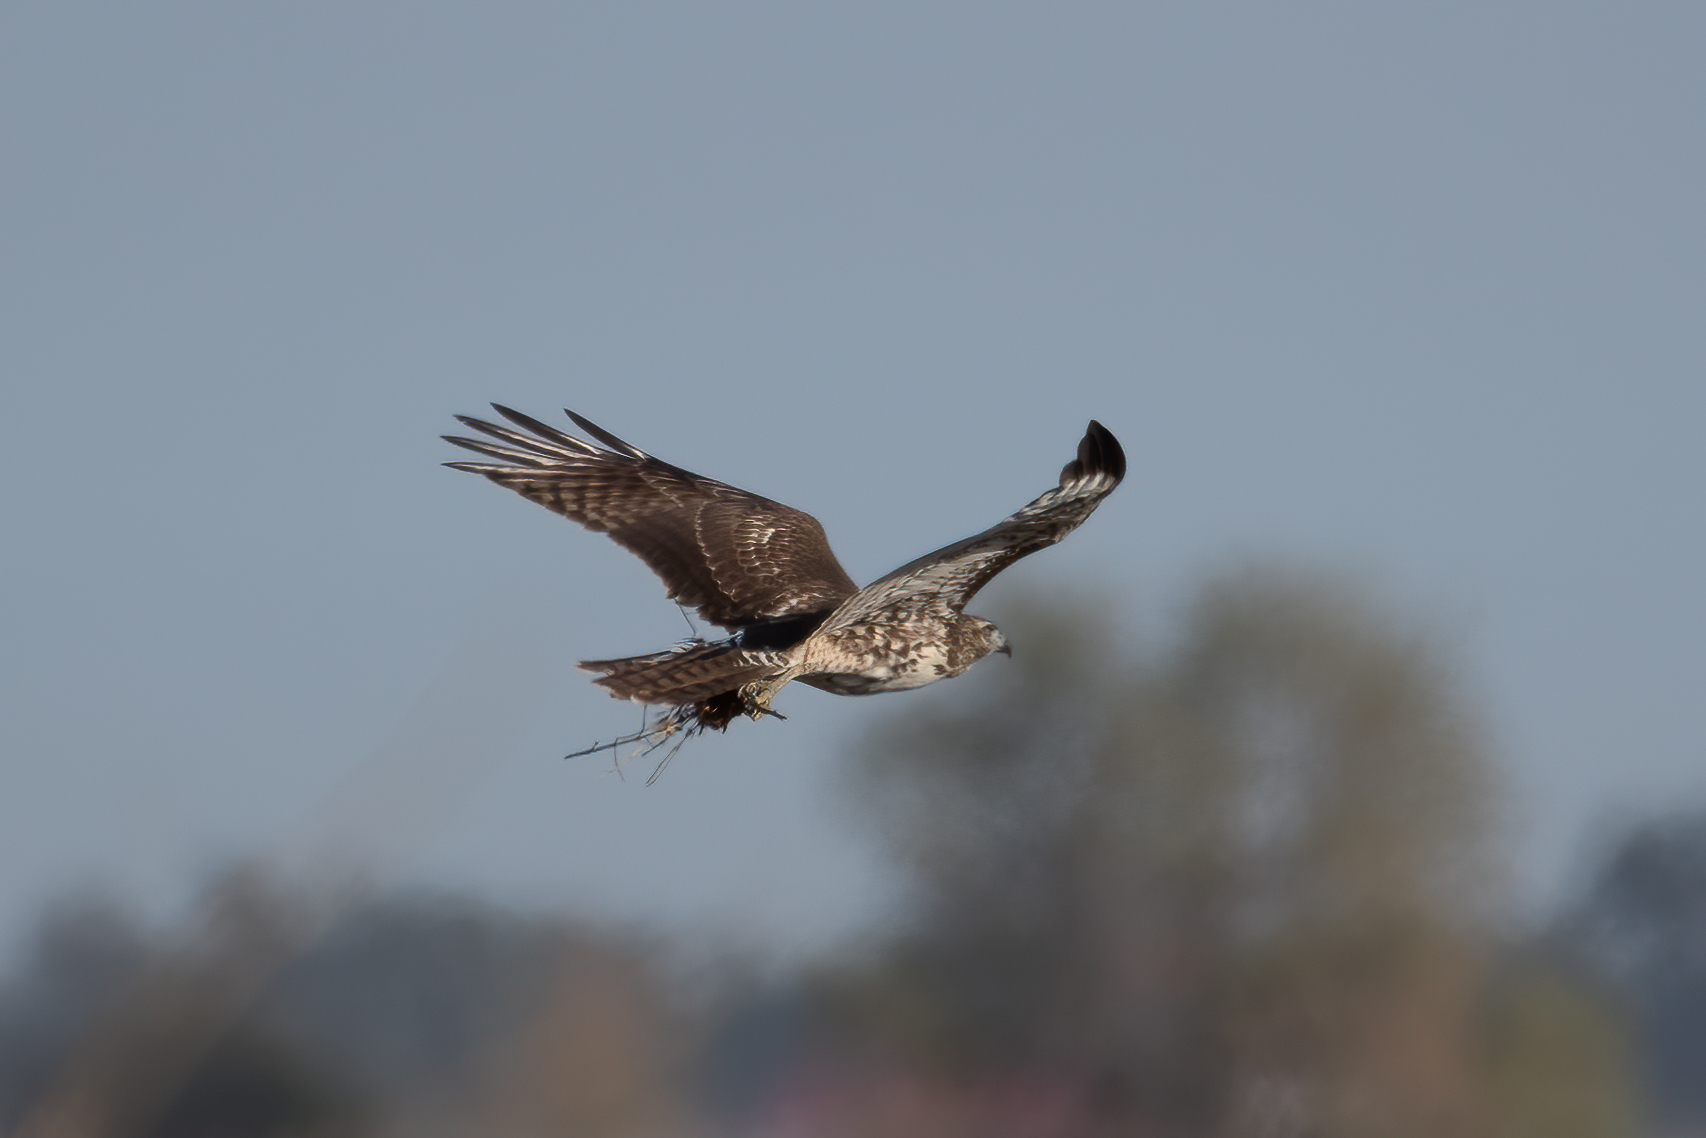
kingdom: Animalia
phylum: Chordata
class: Aves
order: Accipitriformes
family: Accipitridae
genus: Buteo
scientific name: Buteo jamaicensis
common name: Red-tailed hawk
